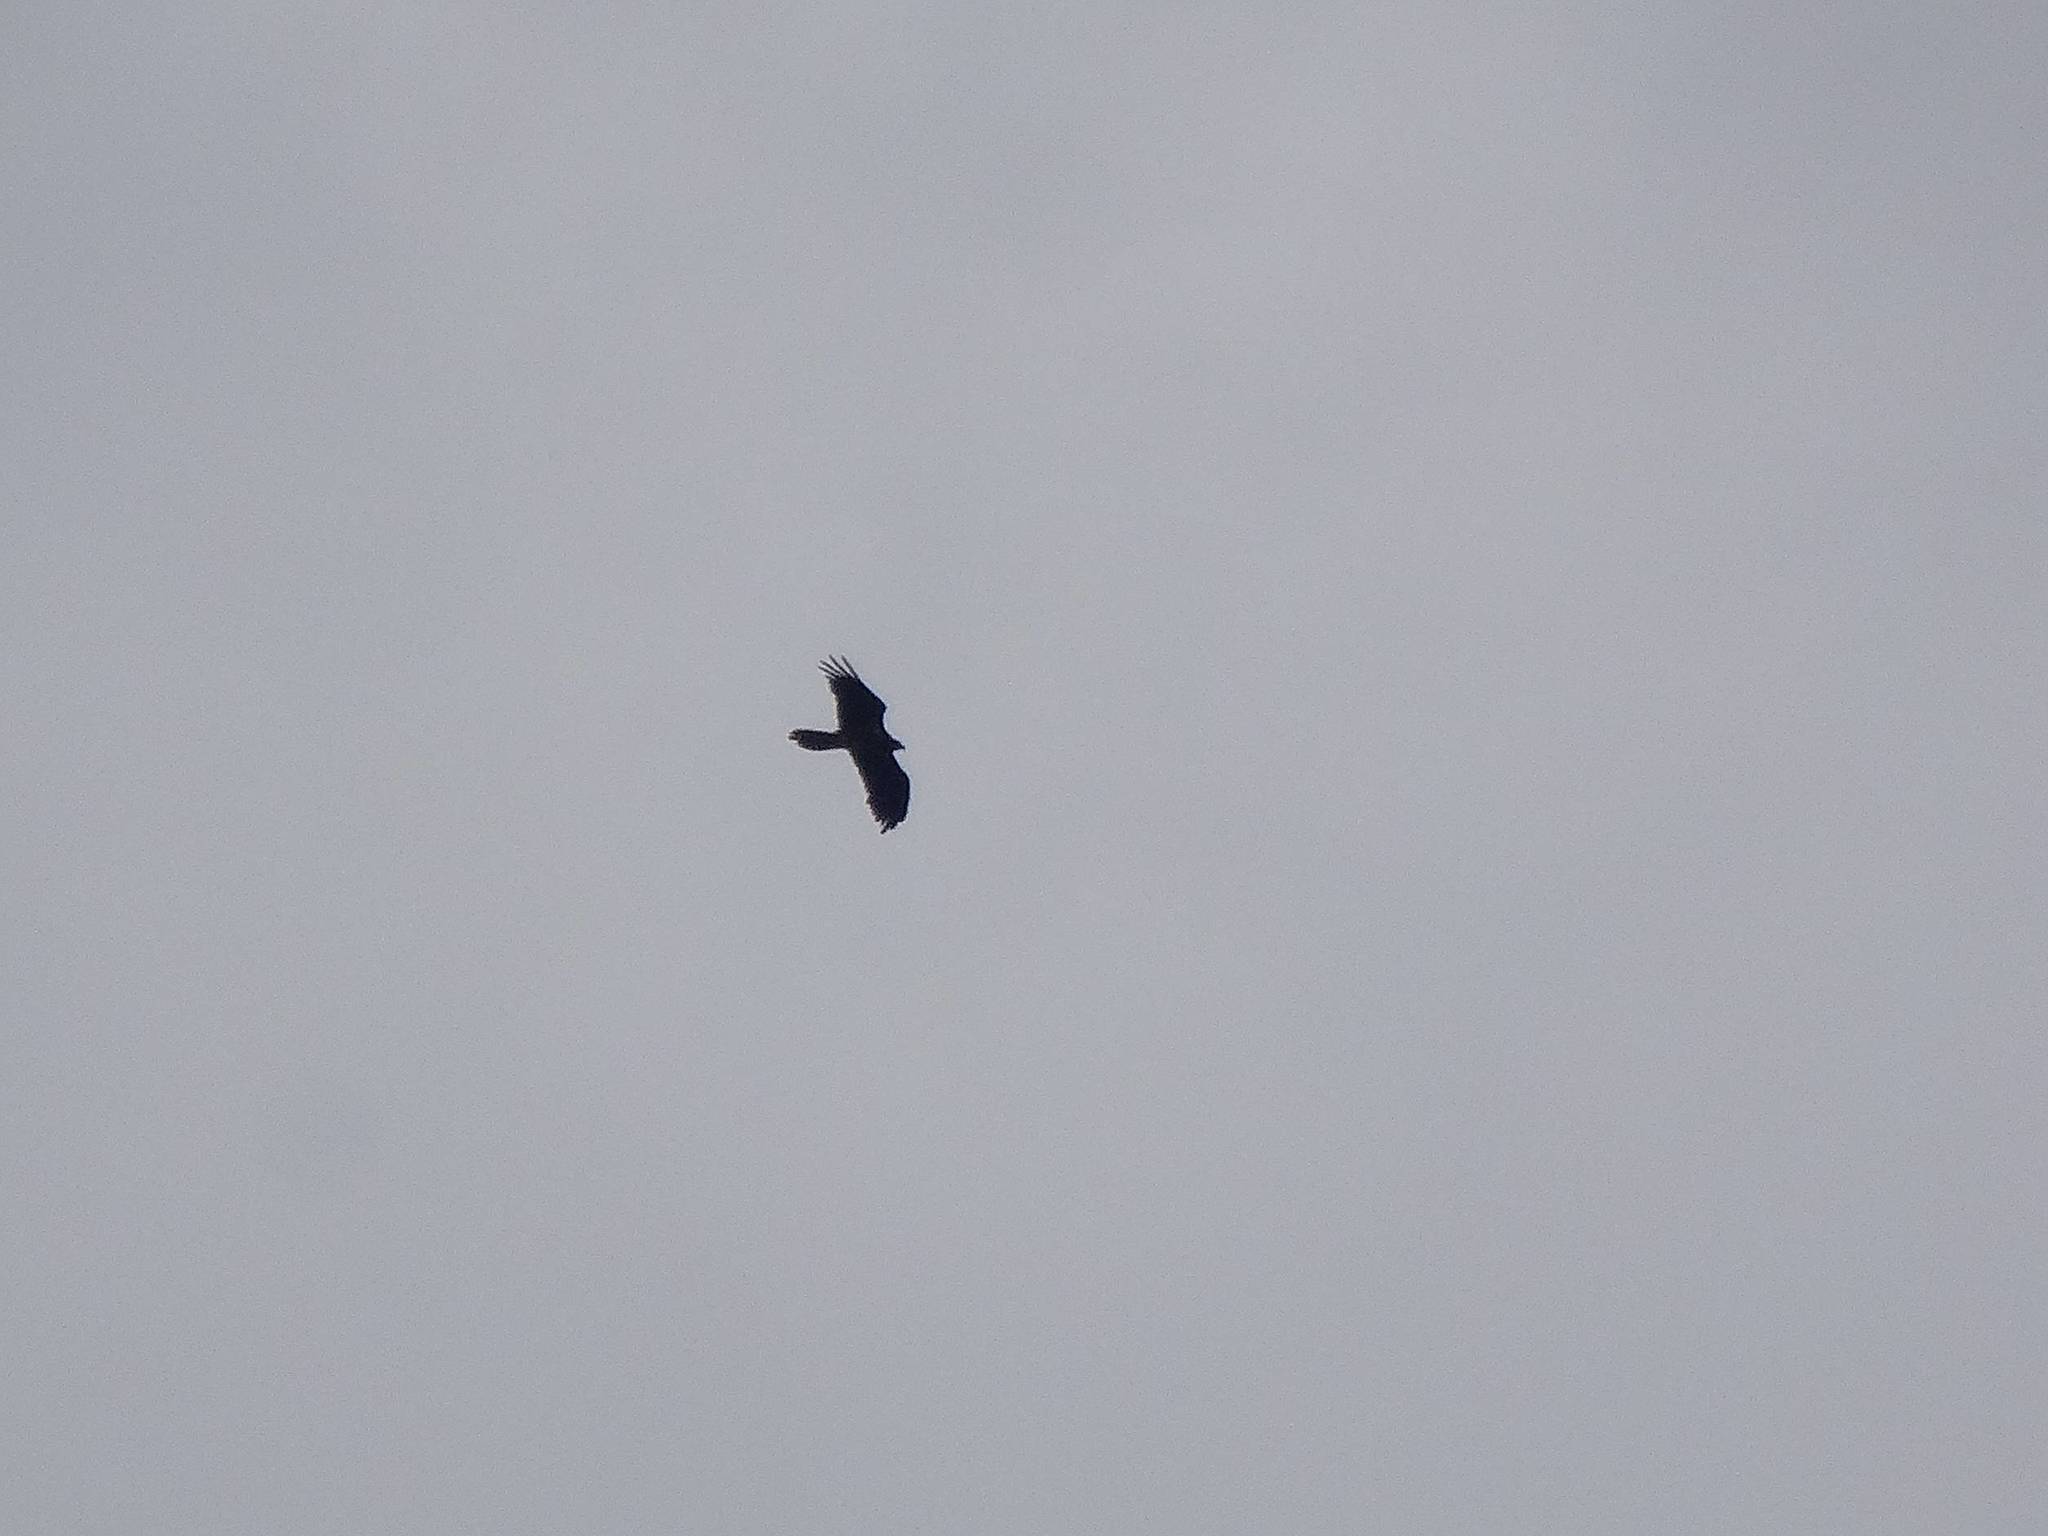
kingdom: Animalia
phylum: Chordata
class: Aves
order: Accipitriformes
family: Accipitridae
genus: Gypaetus
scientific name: Gypaetus barbatus
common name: Bearded vulture
